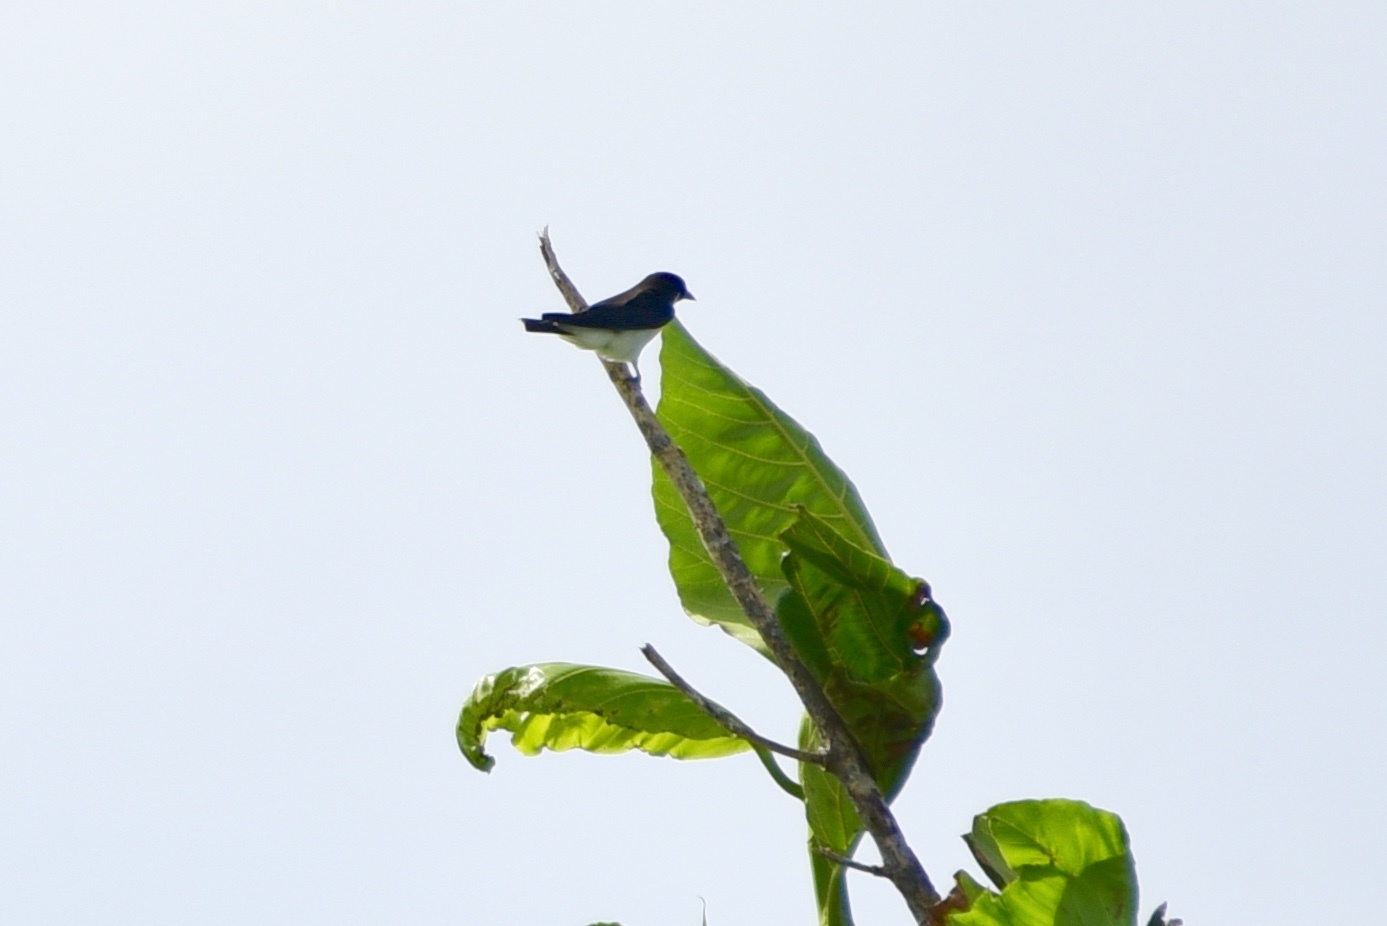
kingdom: Animalia
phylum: Chordata
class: Aves
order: Passeriformes
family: Artamidae
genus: Artamus
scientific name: Artamus mentalis
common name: Fiji woodswallow
